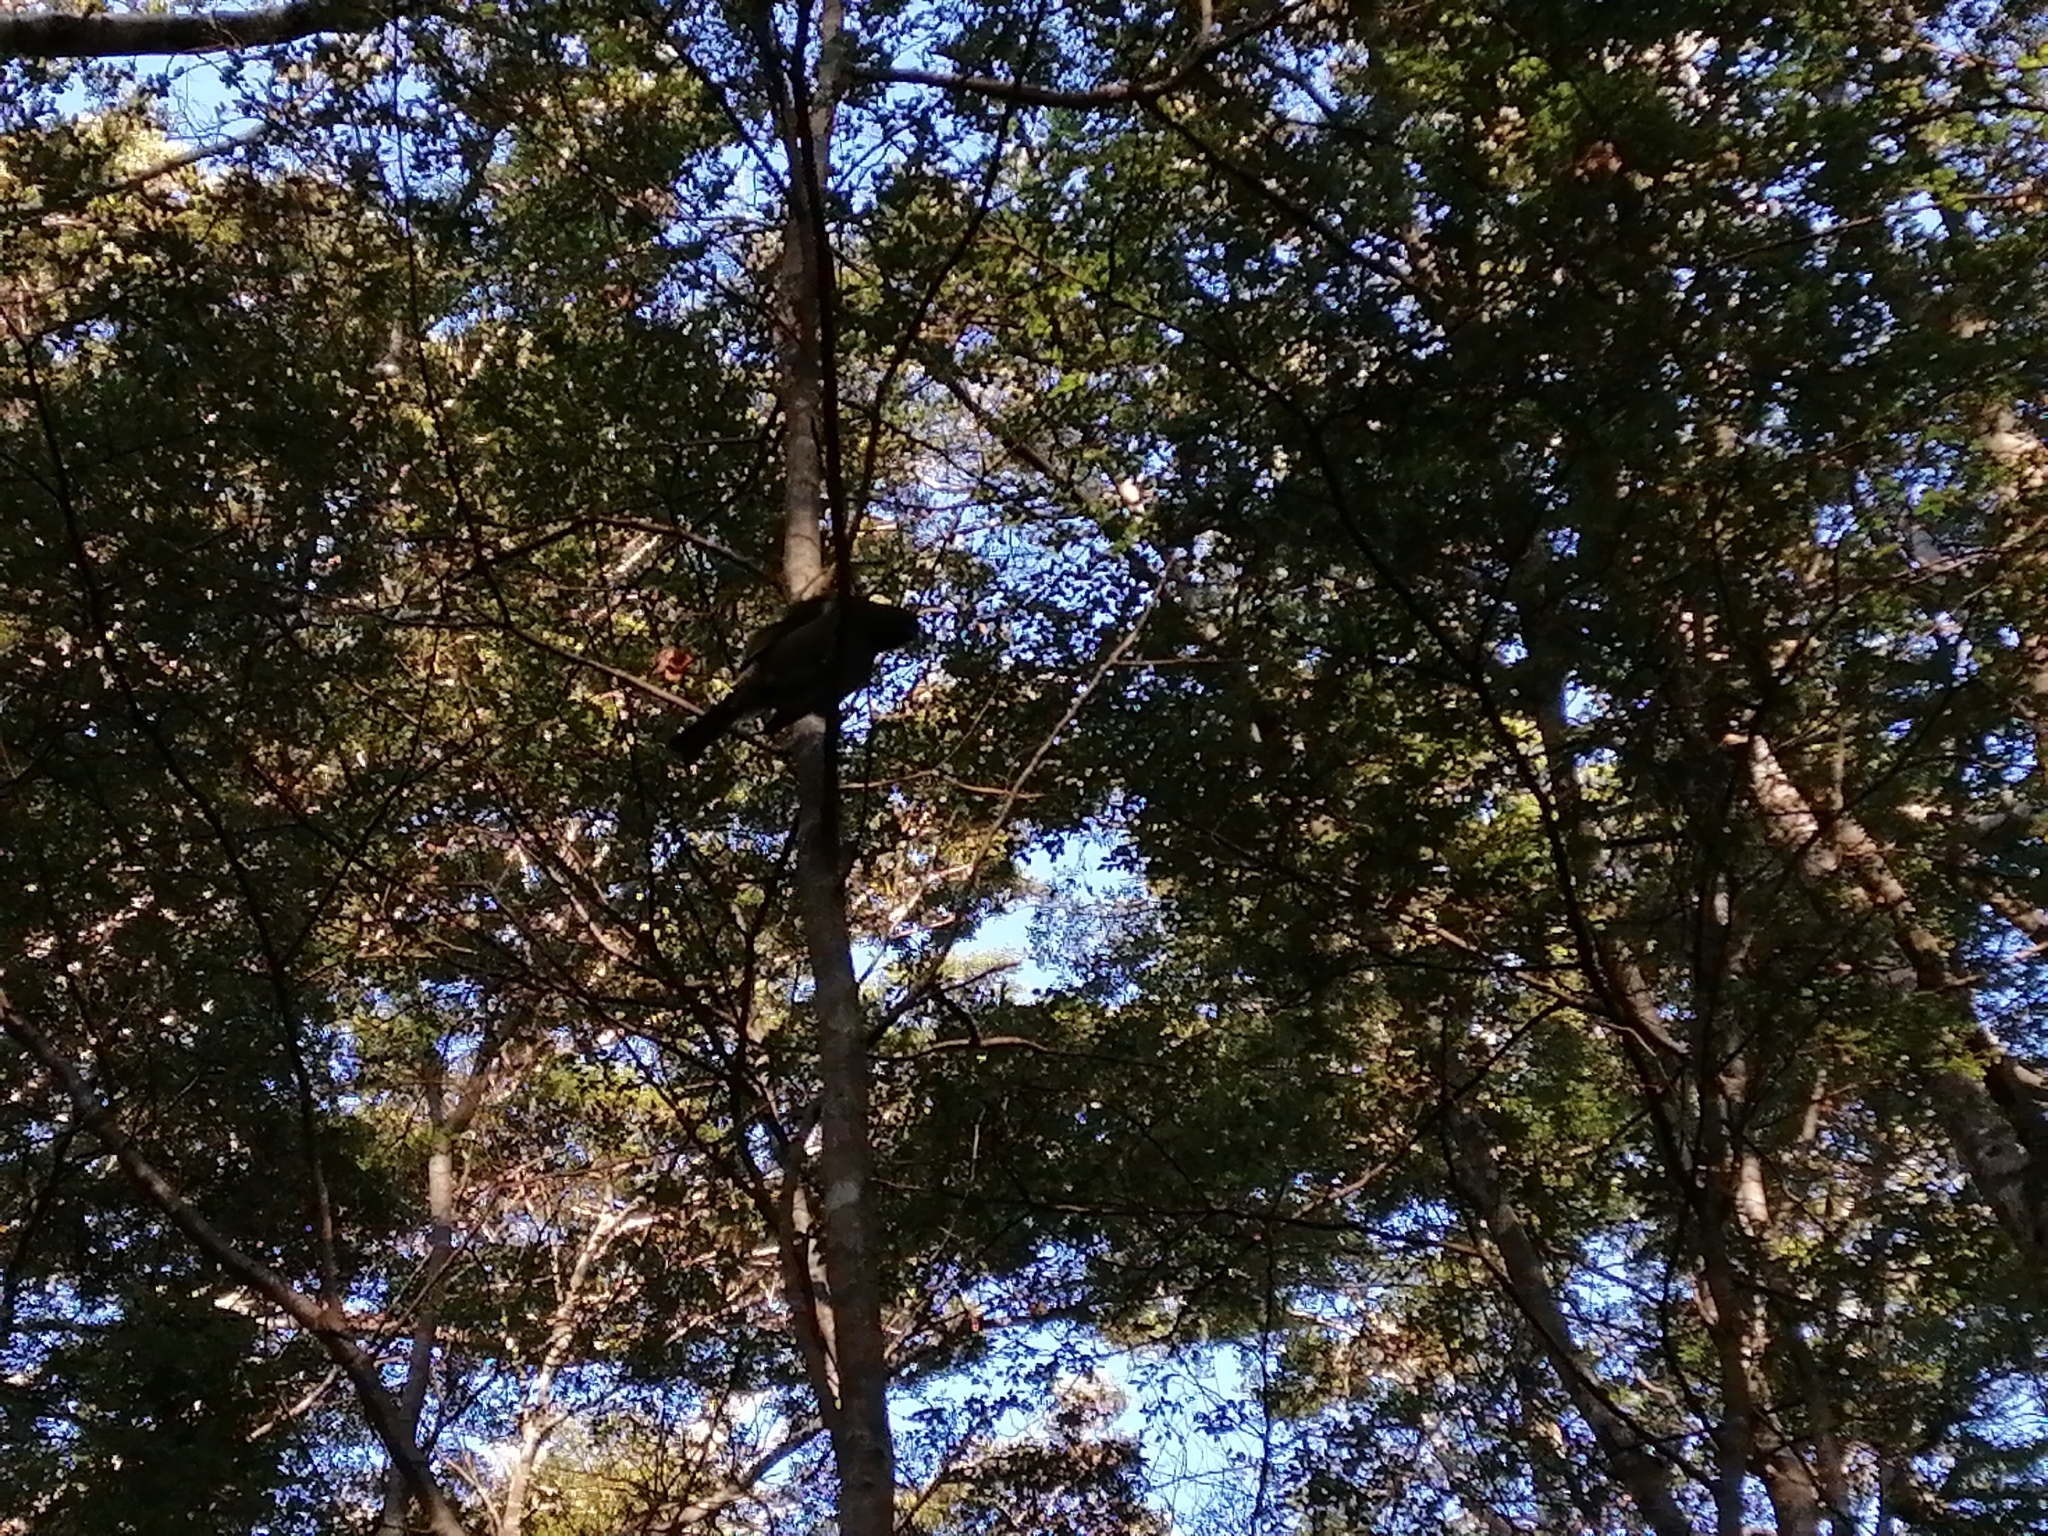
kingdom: Animalia
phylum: Chordata
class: Aves
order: Passeriformes
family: Meliphagidae
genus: Anthornis
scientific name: Anthornis melanura
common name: New zealand bellbird
